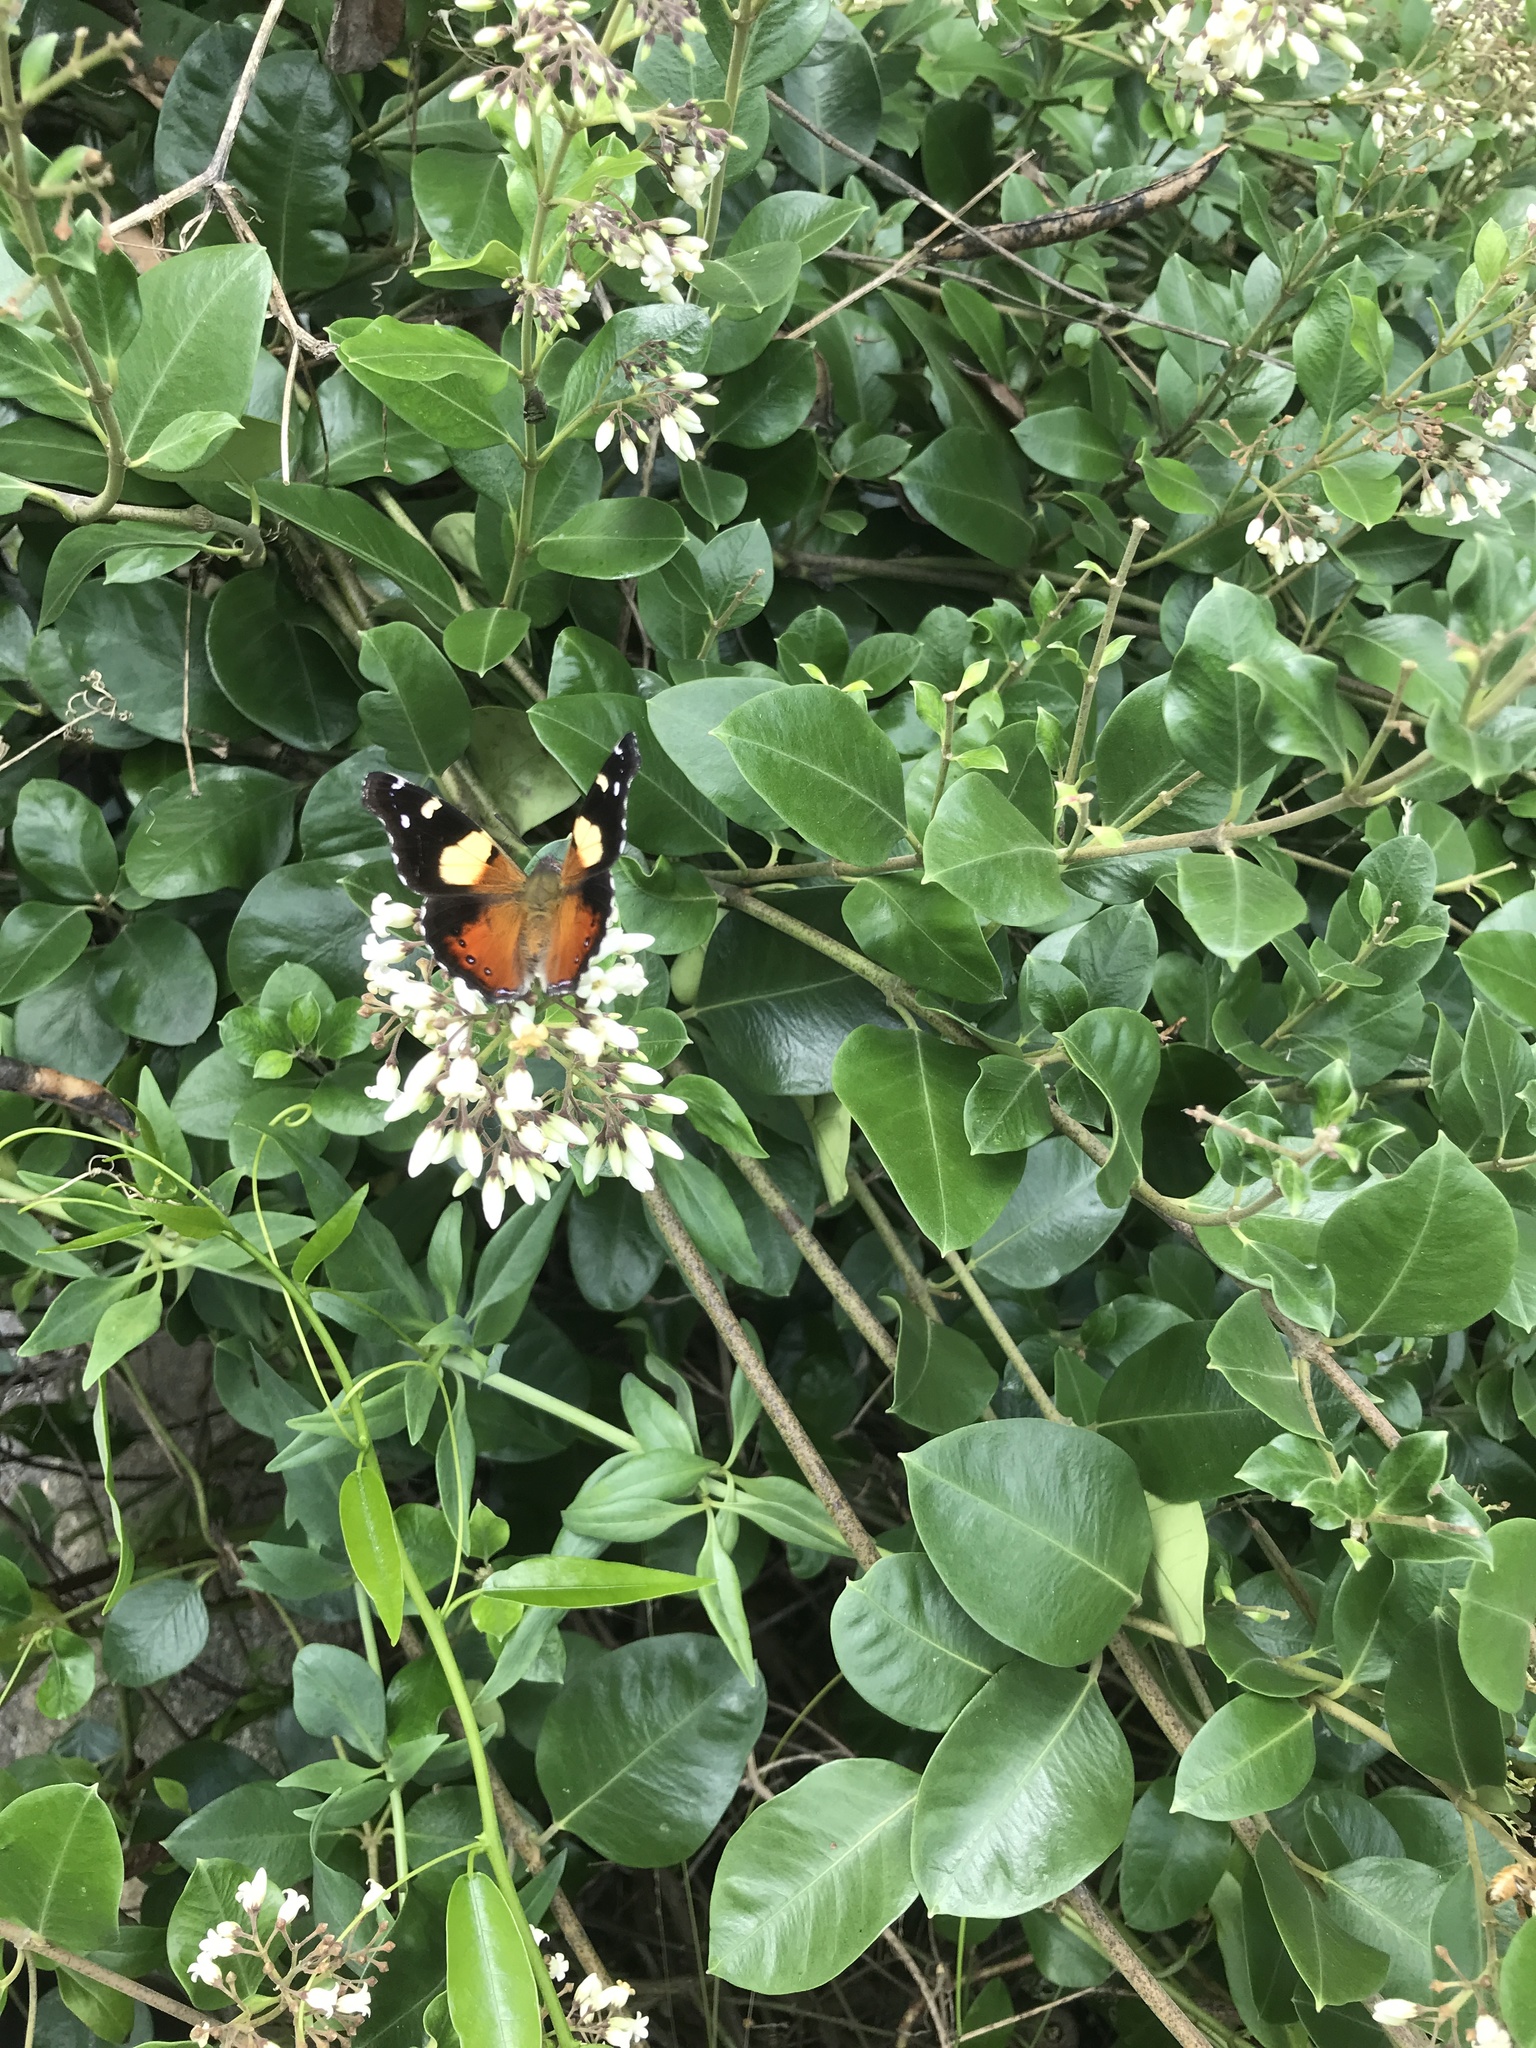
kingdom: Animalia
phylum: Arthropoda
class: Insecta
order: Lepidoptera
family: Nymphalidae
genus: Vanessa
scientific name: Vanessa itea
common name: Yellow admiral
